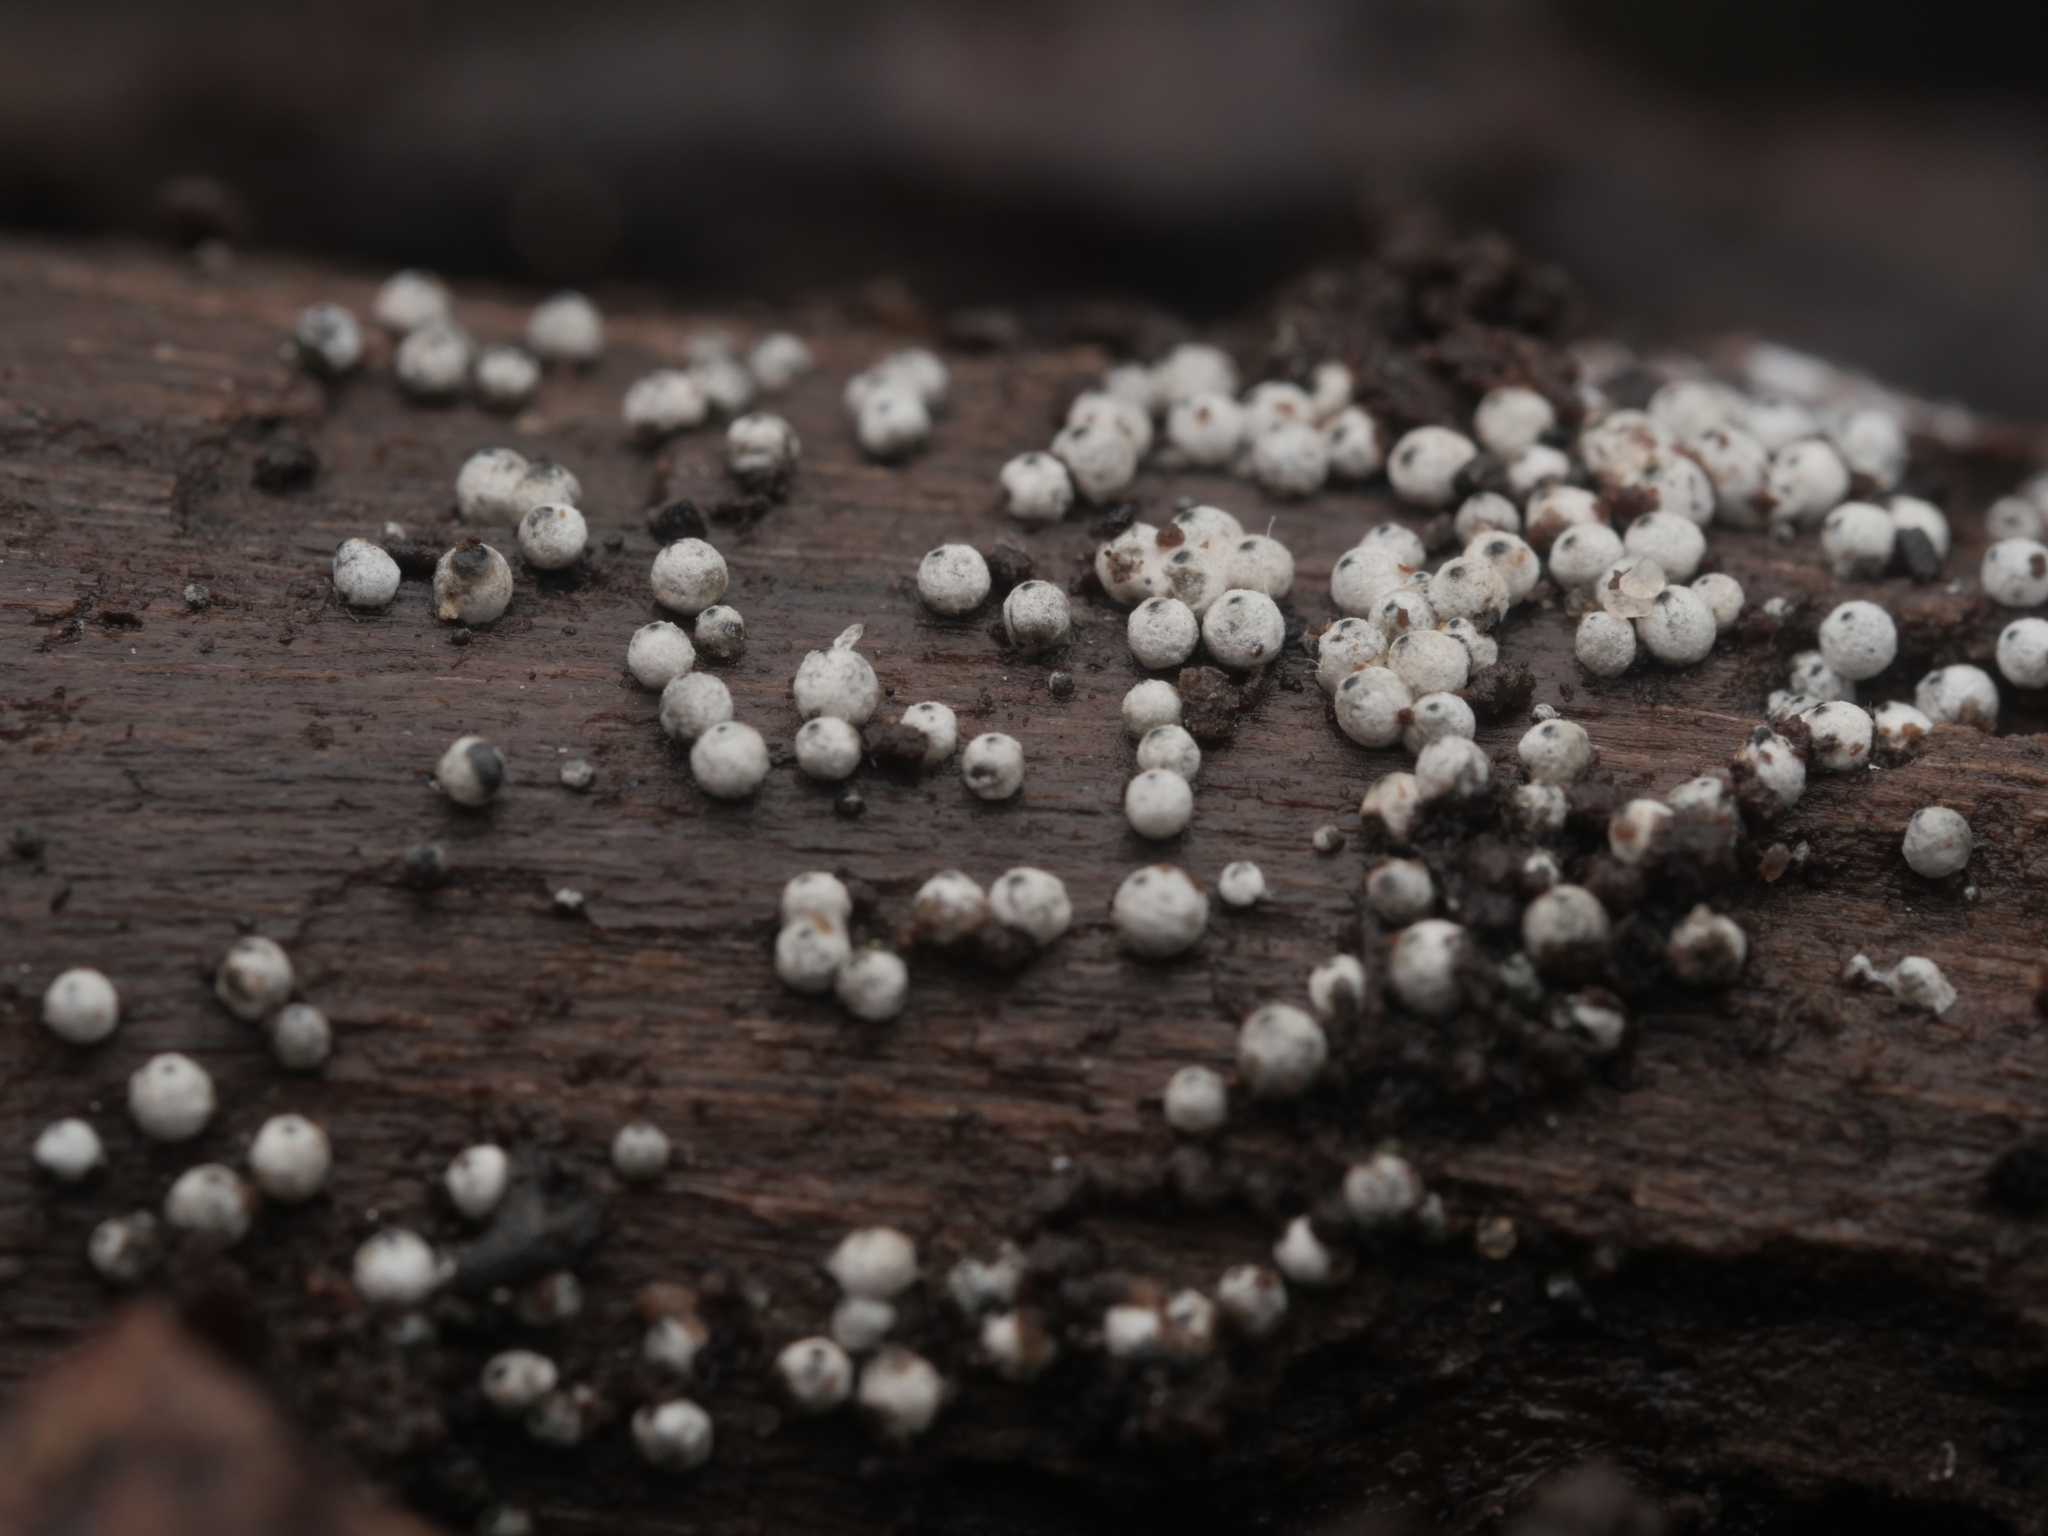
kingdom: Fungi
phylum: Ascomycota
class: Sordariomycetes
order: Sordariales
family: Lasiosphaeriaceae
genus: Lasiosphaeria
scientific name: Lasiosphaeria ovina
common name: Woolly woodwart
